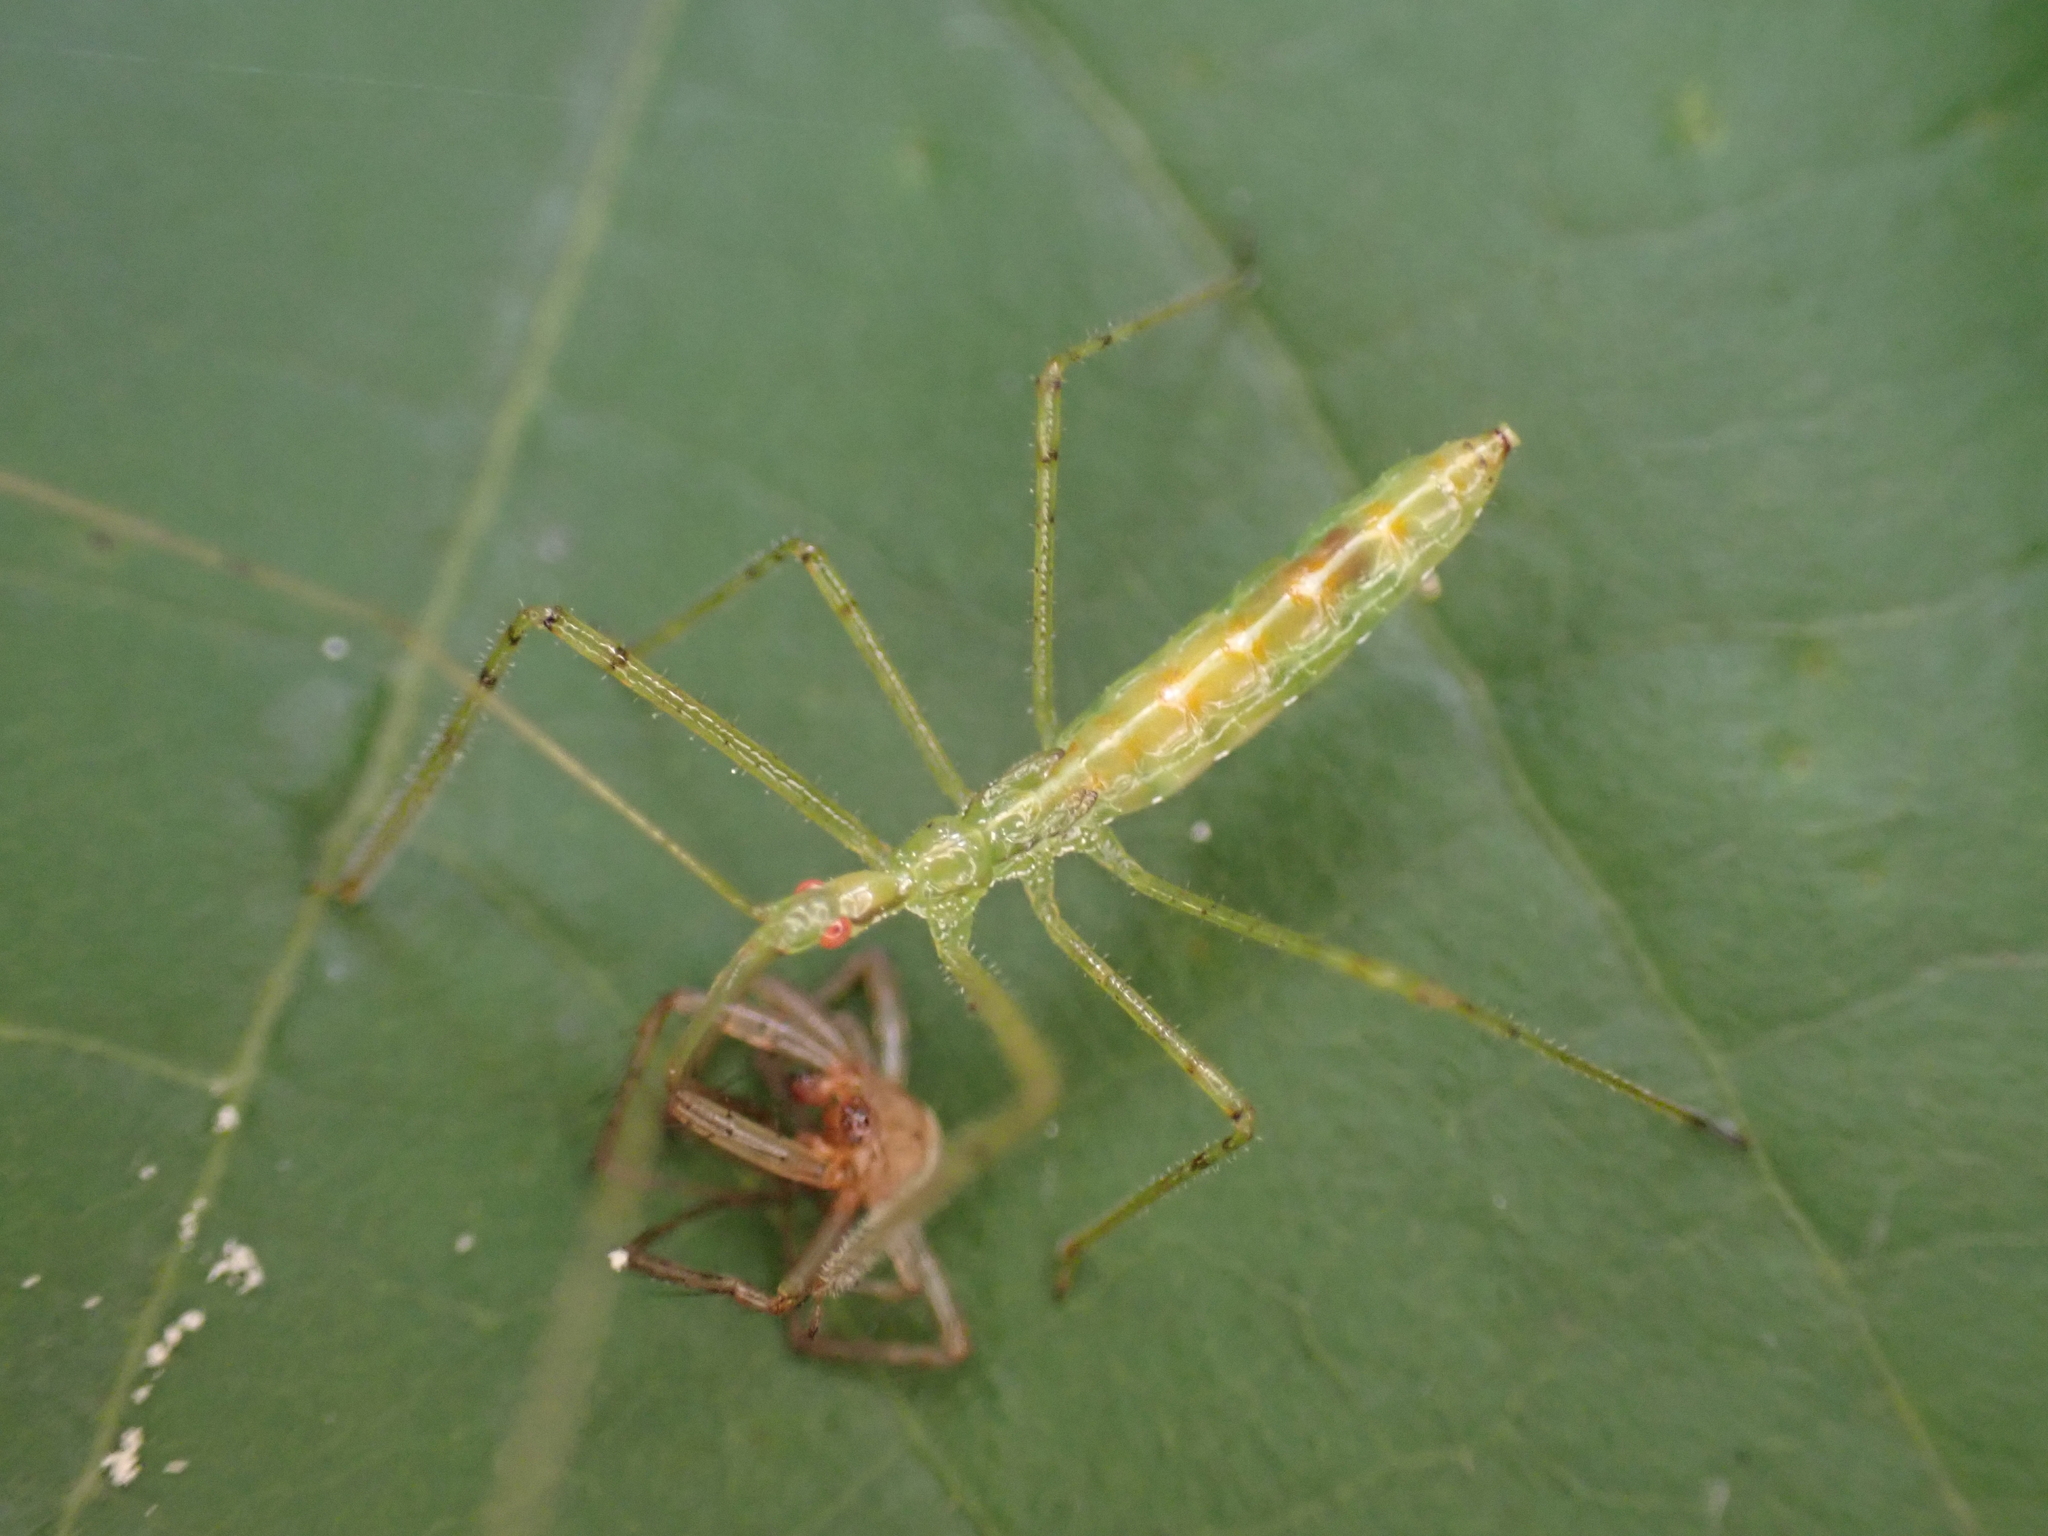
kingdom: Animalia
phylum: Arthropoda
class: Insecta
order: Hemiptera
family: Reduviidae
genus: Zelus
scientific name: Zelus luridus
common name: Pale green assassin bug
